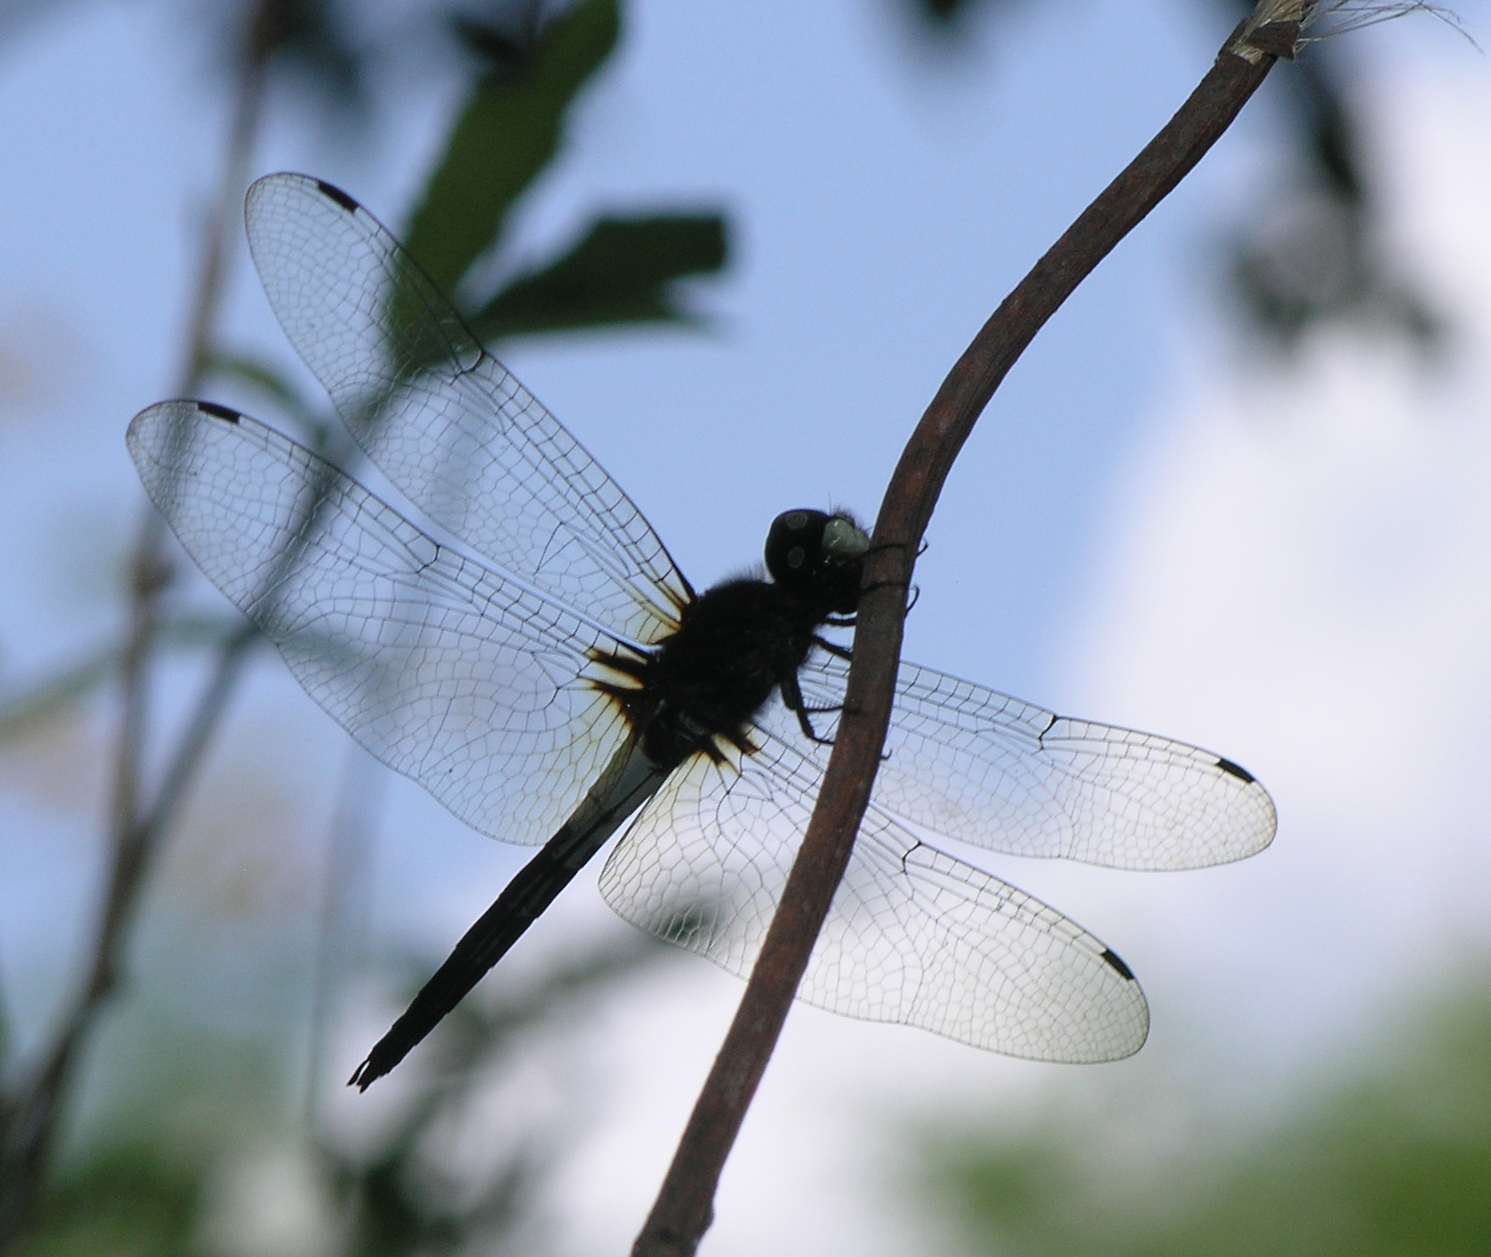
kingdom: Animalia
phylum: Arthropoda
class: Insecta
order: Odonata
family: Libellulidae
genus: Pseudothemis
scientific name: Pseudothemis jorina
